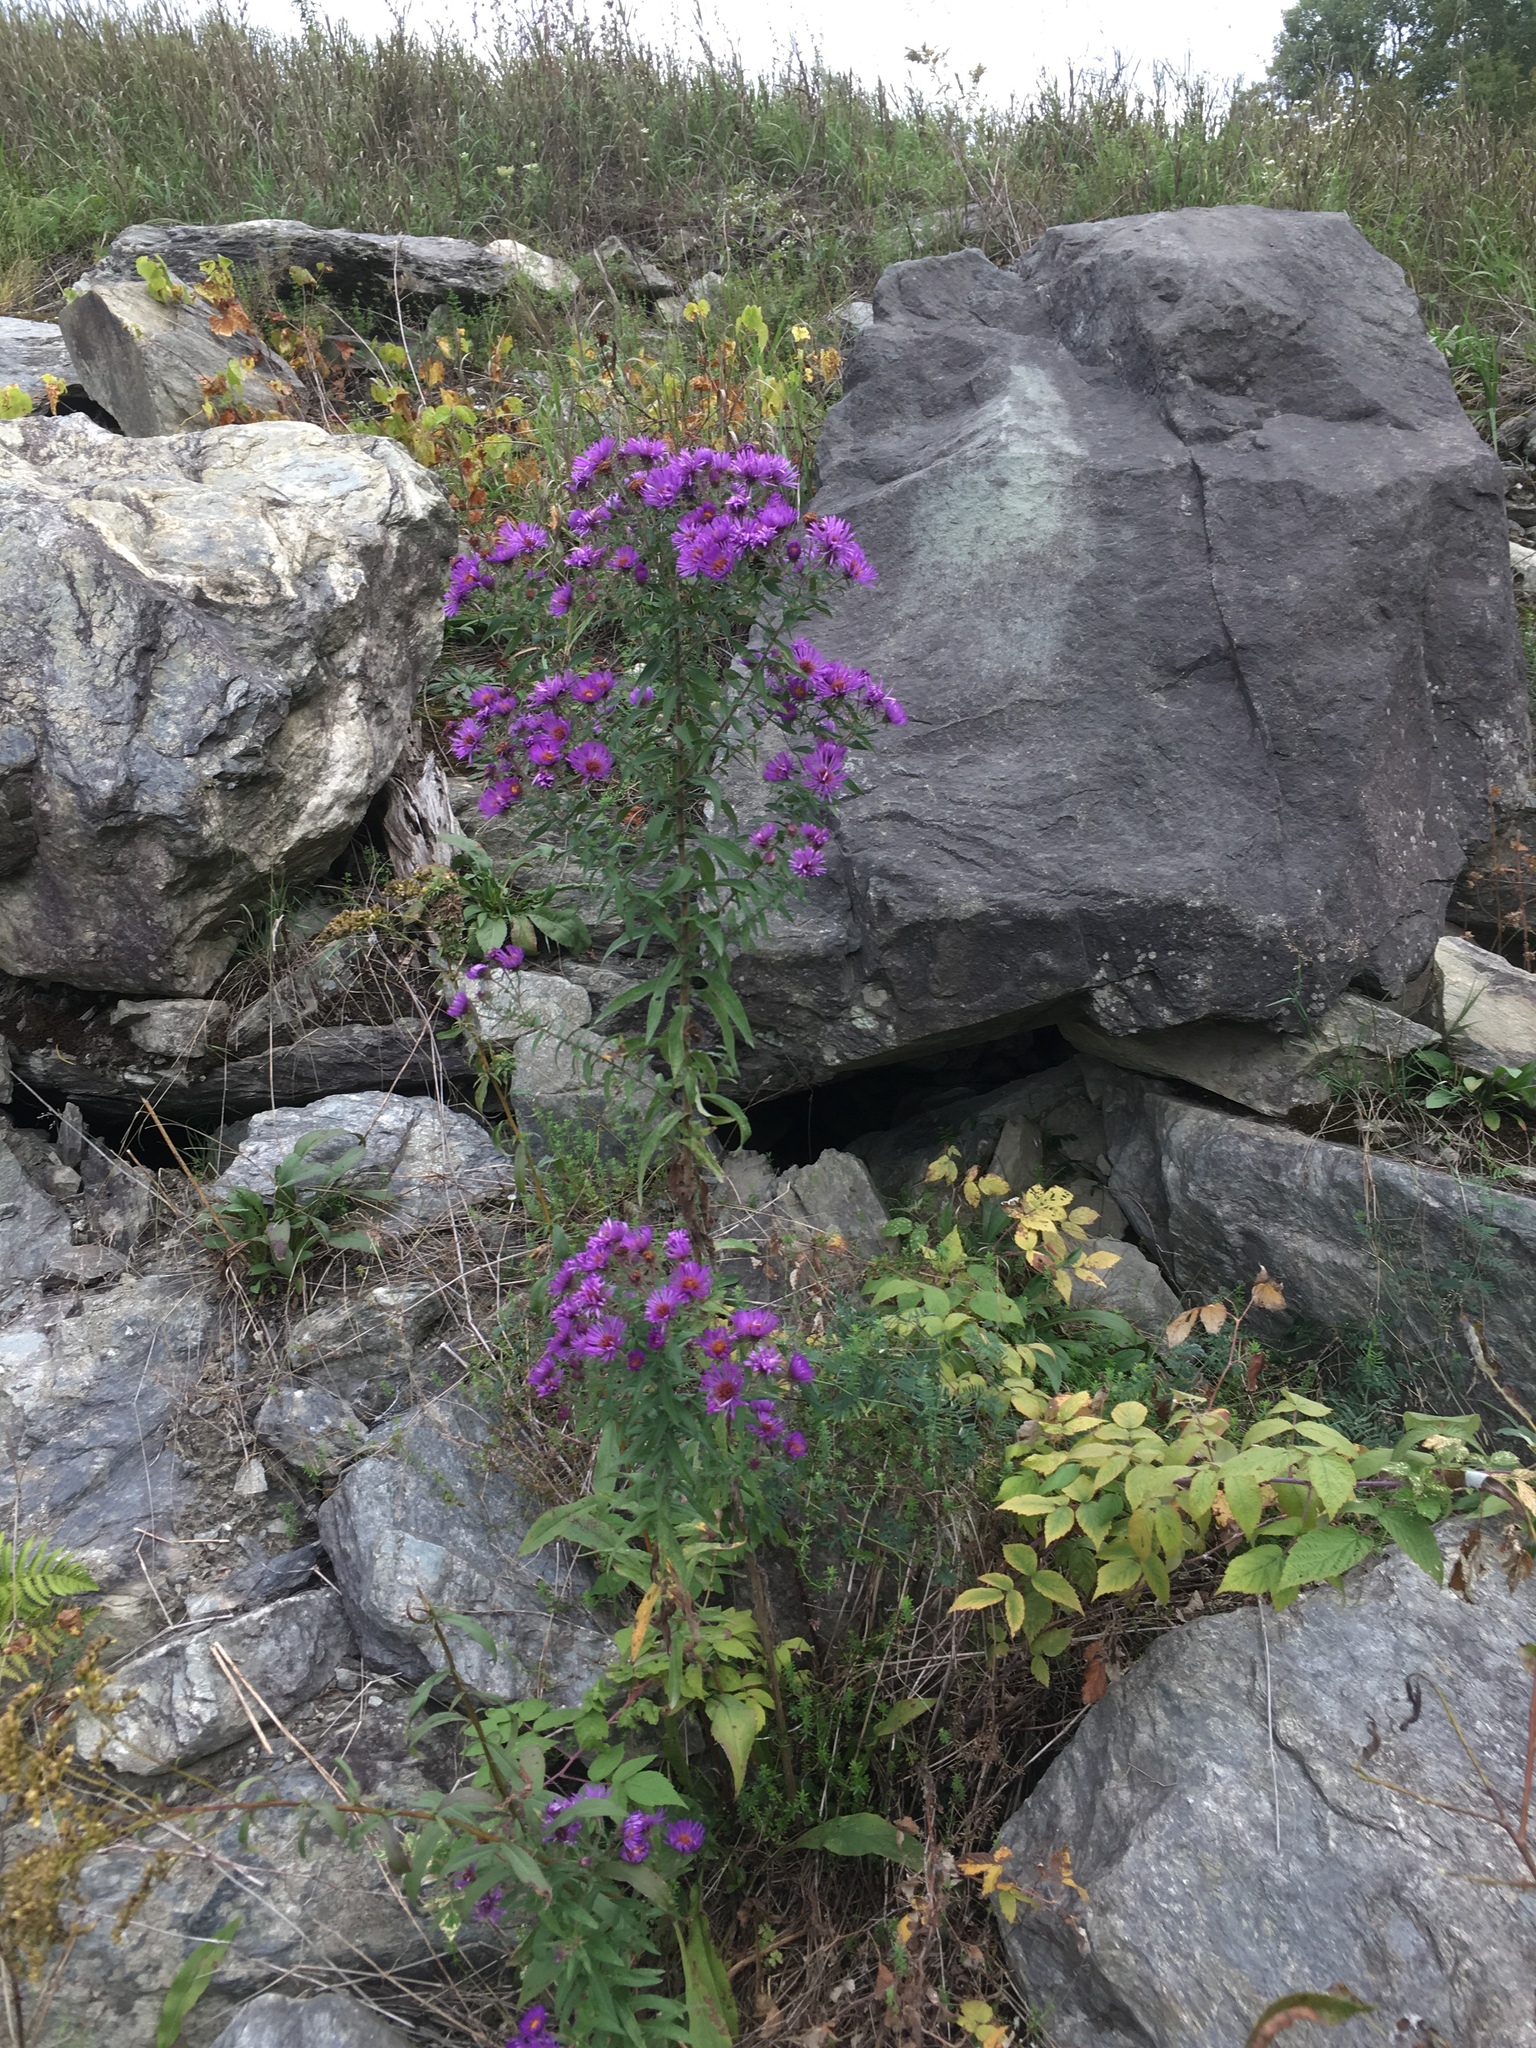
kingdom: Plantae
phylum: Tracheophyta
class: Magnoliopsida
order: Asterales
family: Asteraceae
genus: Symphyotrichum
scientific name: Symphyotrichum novae-angliae
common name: Michaelmas daisy
